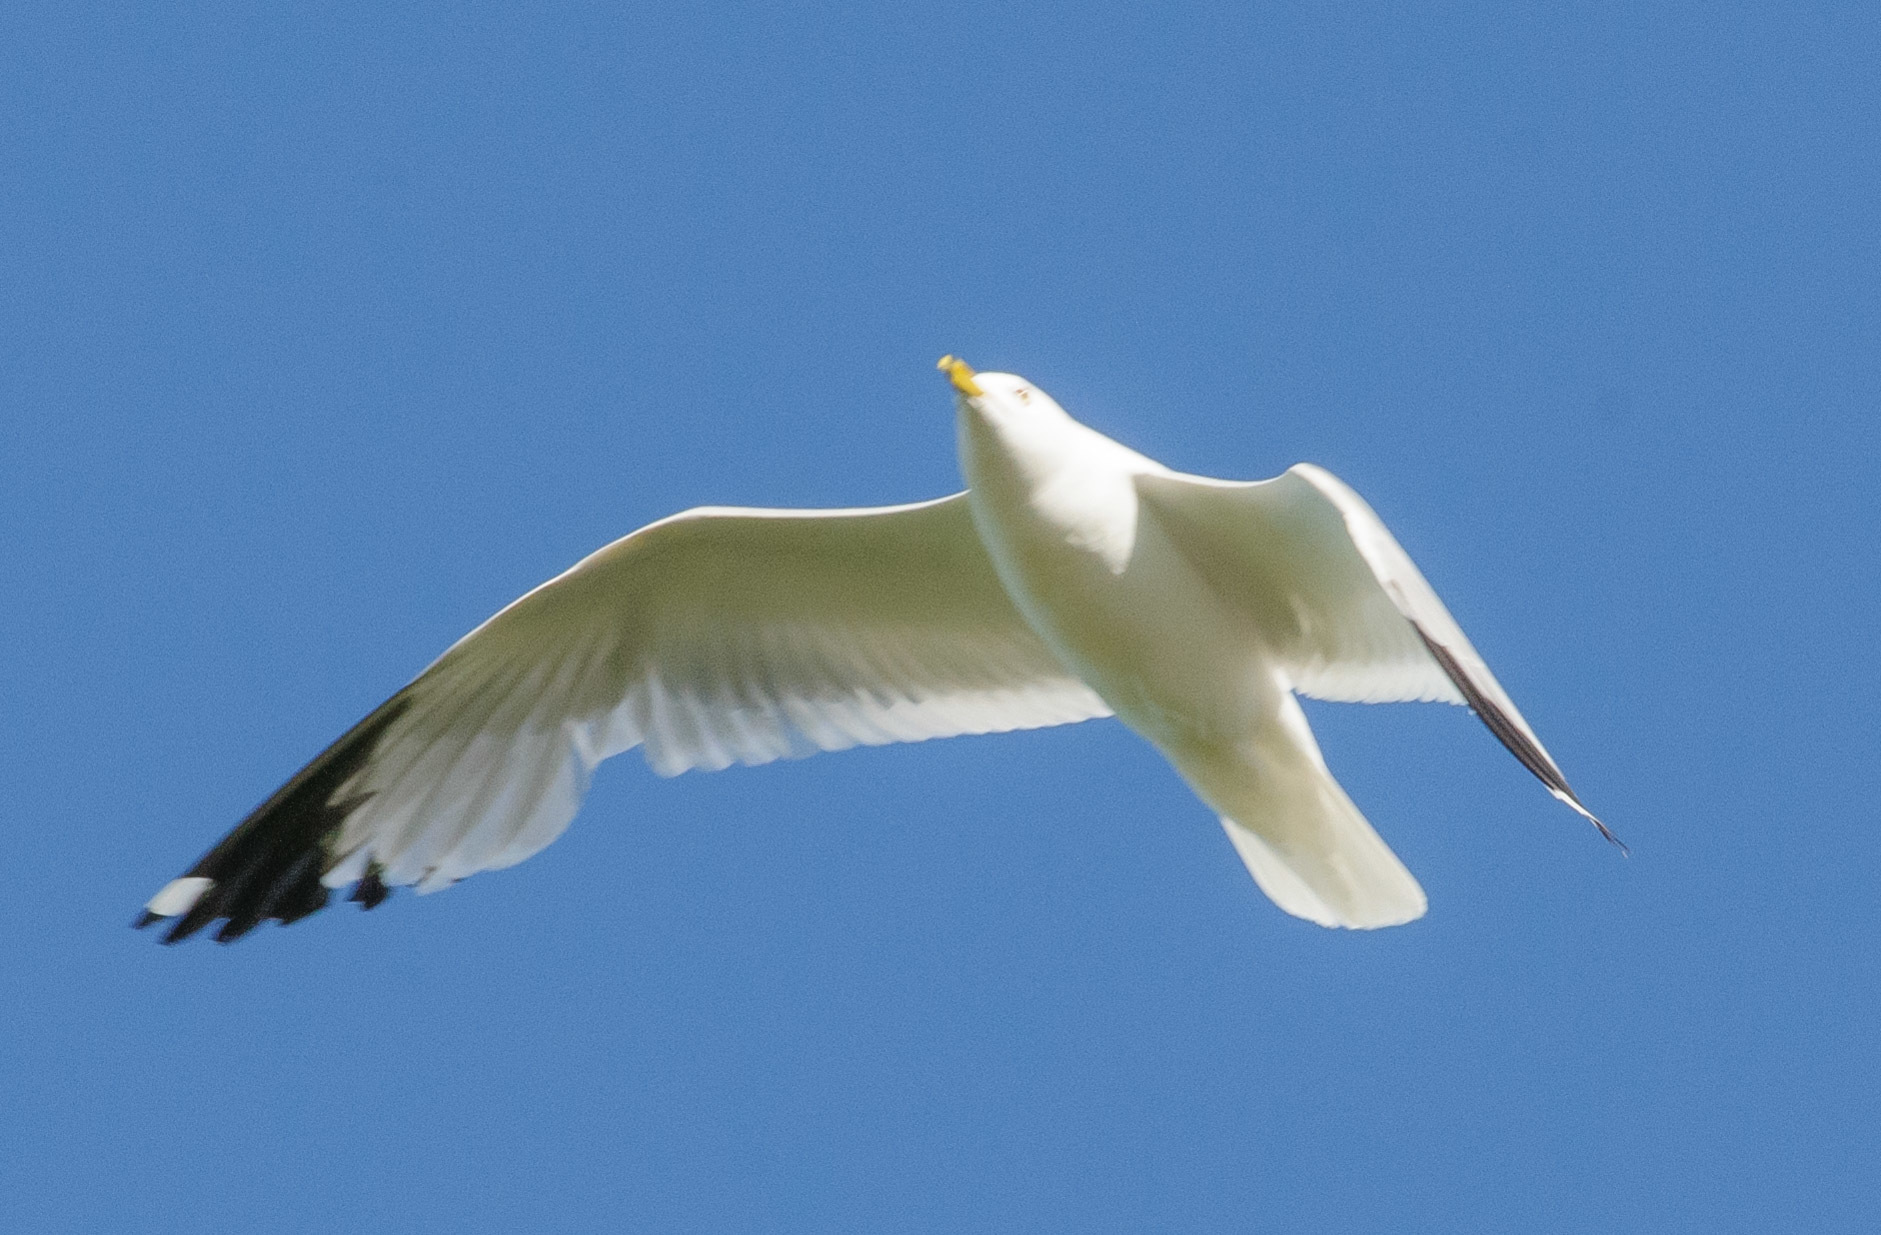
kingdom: Animalia
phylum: Chordata
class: Aves
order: Charadriiformes
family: Laridae
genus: Larus
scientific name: Larus delawarensis
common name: Ring-billed gull
